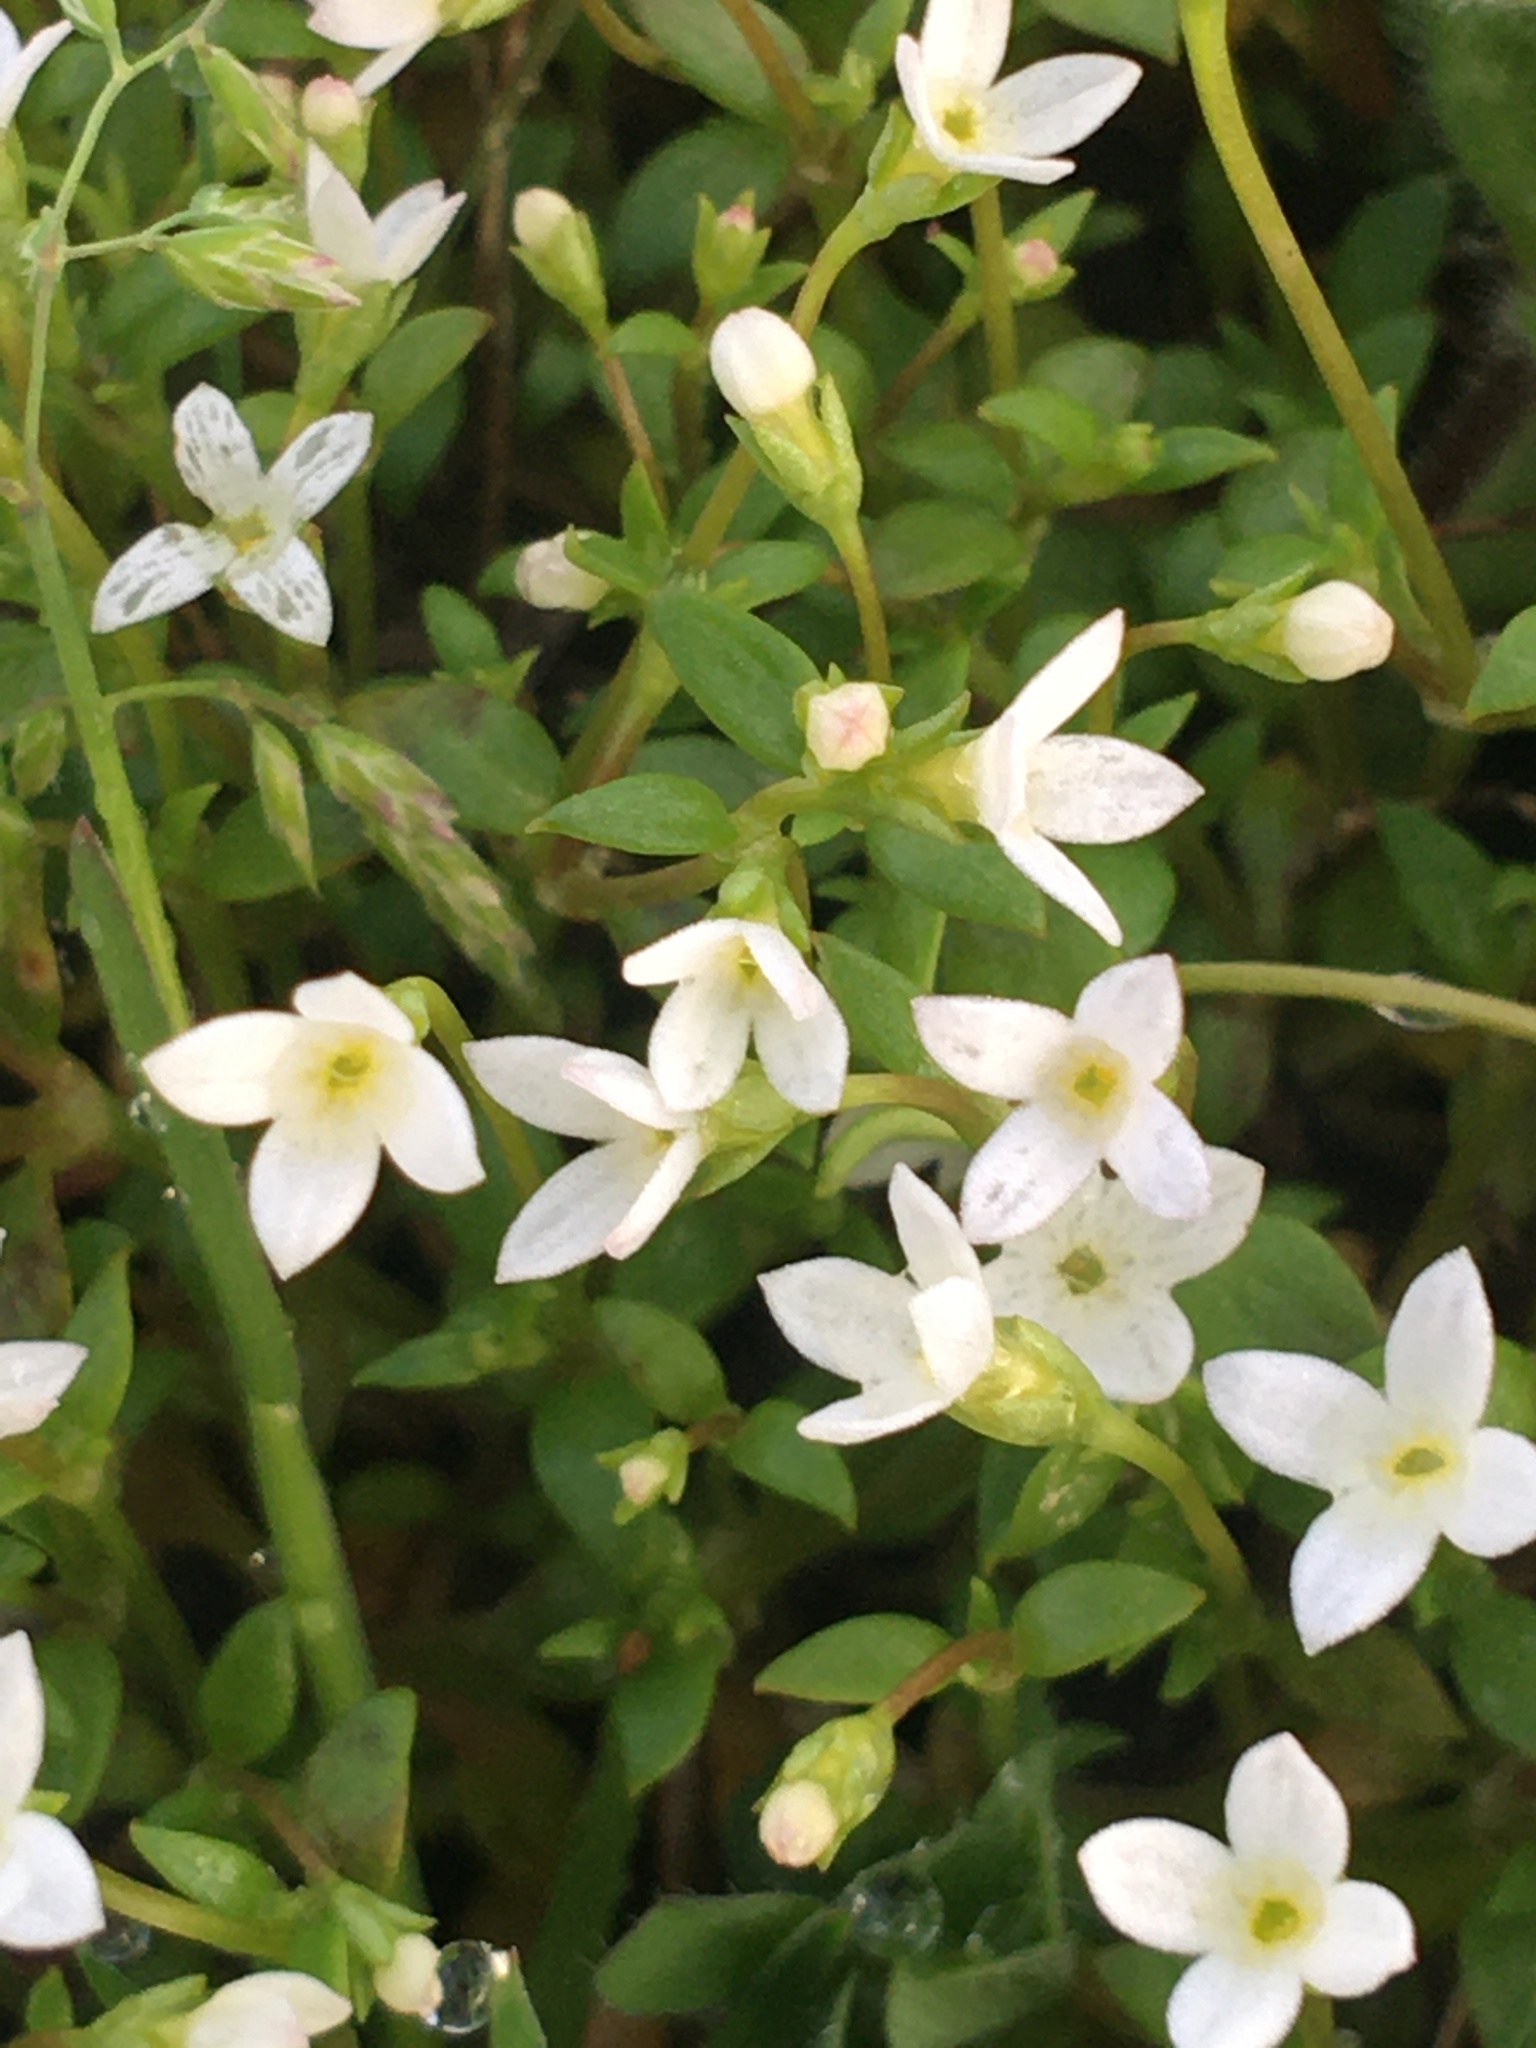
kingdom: Plantae
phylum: Tracheophyta
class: Magnoliopsida
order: Gentianales
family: Rubiaceae
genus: Houstonia
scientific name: Houstonia micrantha
